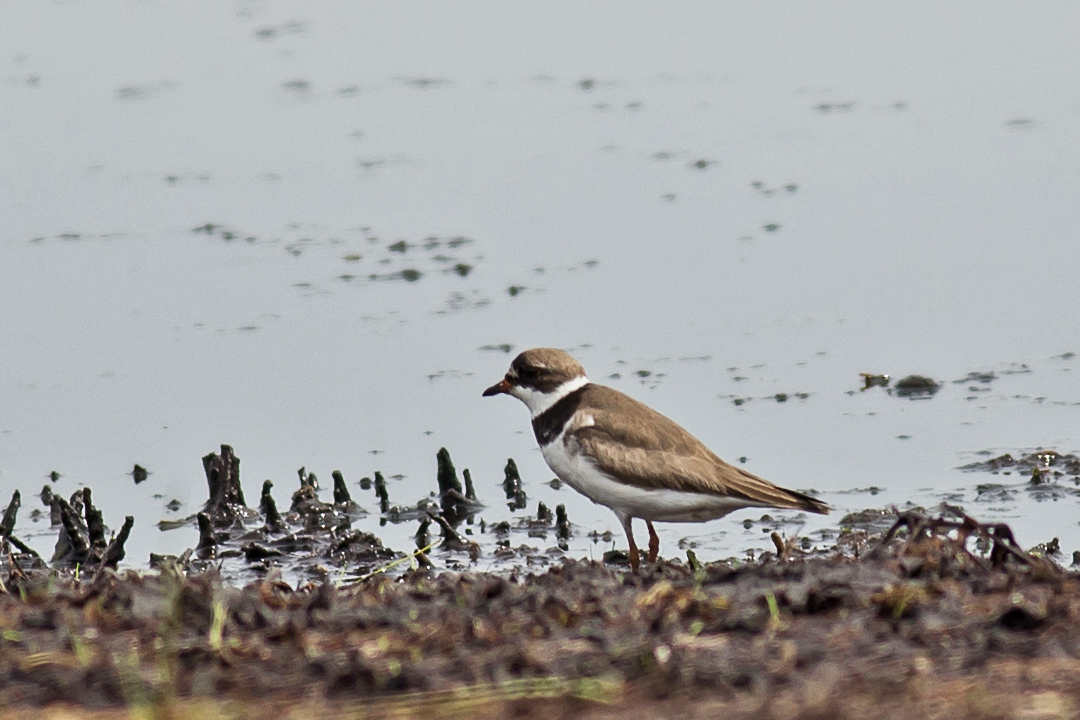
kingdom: Animalia
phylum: Chordata
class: Aves
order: Charadriiformes
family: Charadriidae
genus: Charadrius
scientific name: Charadrius semipalmatus
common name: Semipalmated plover
